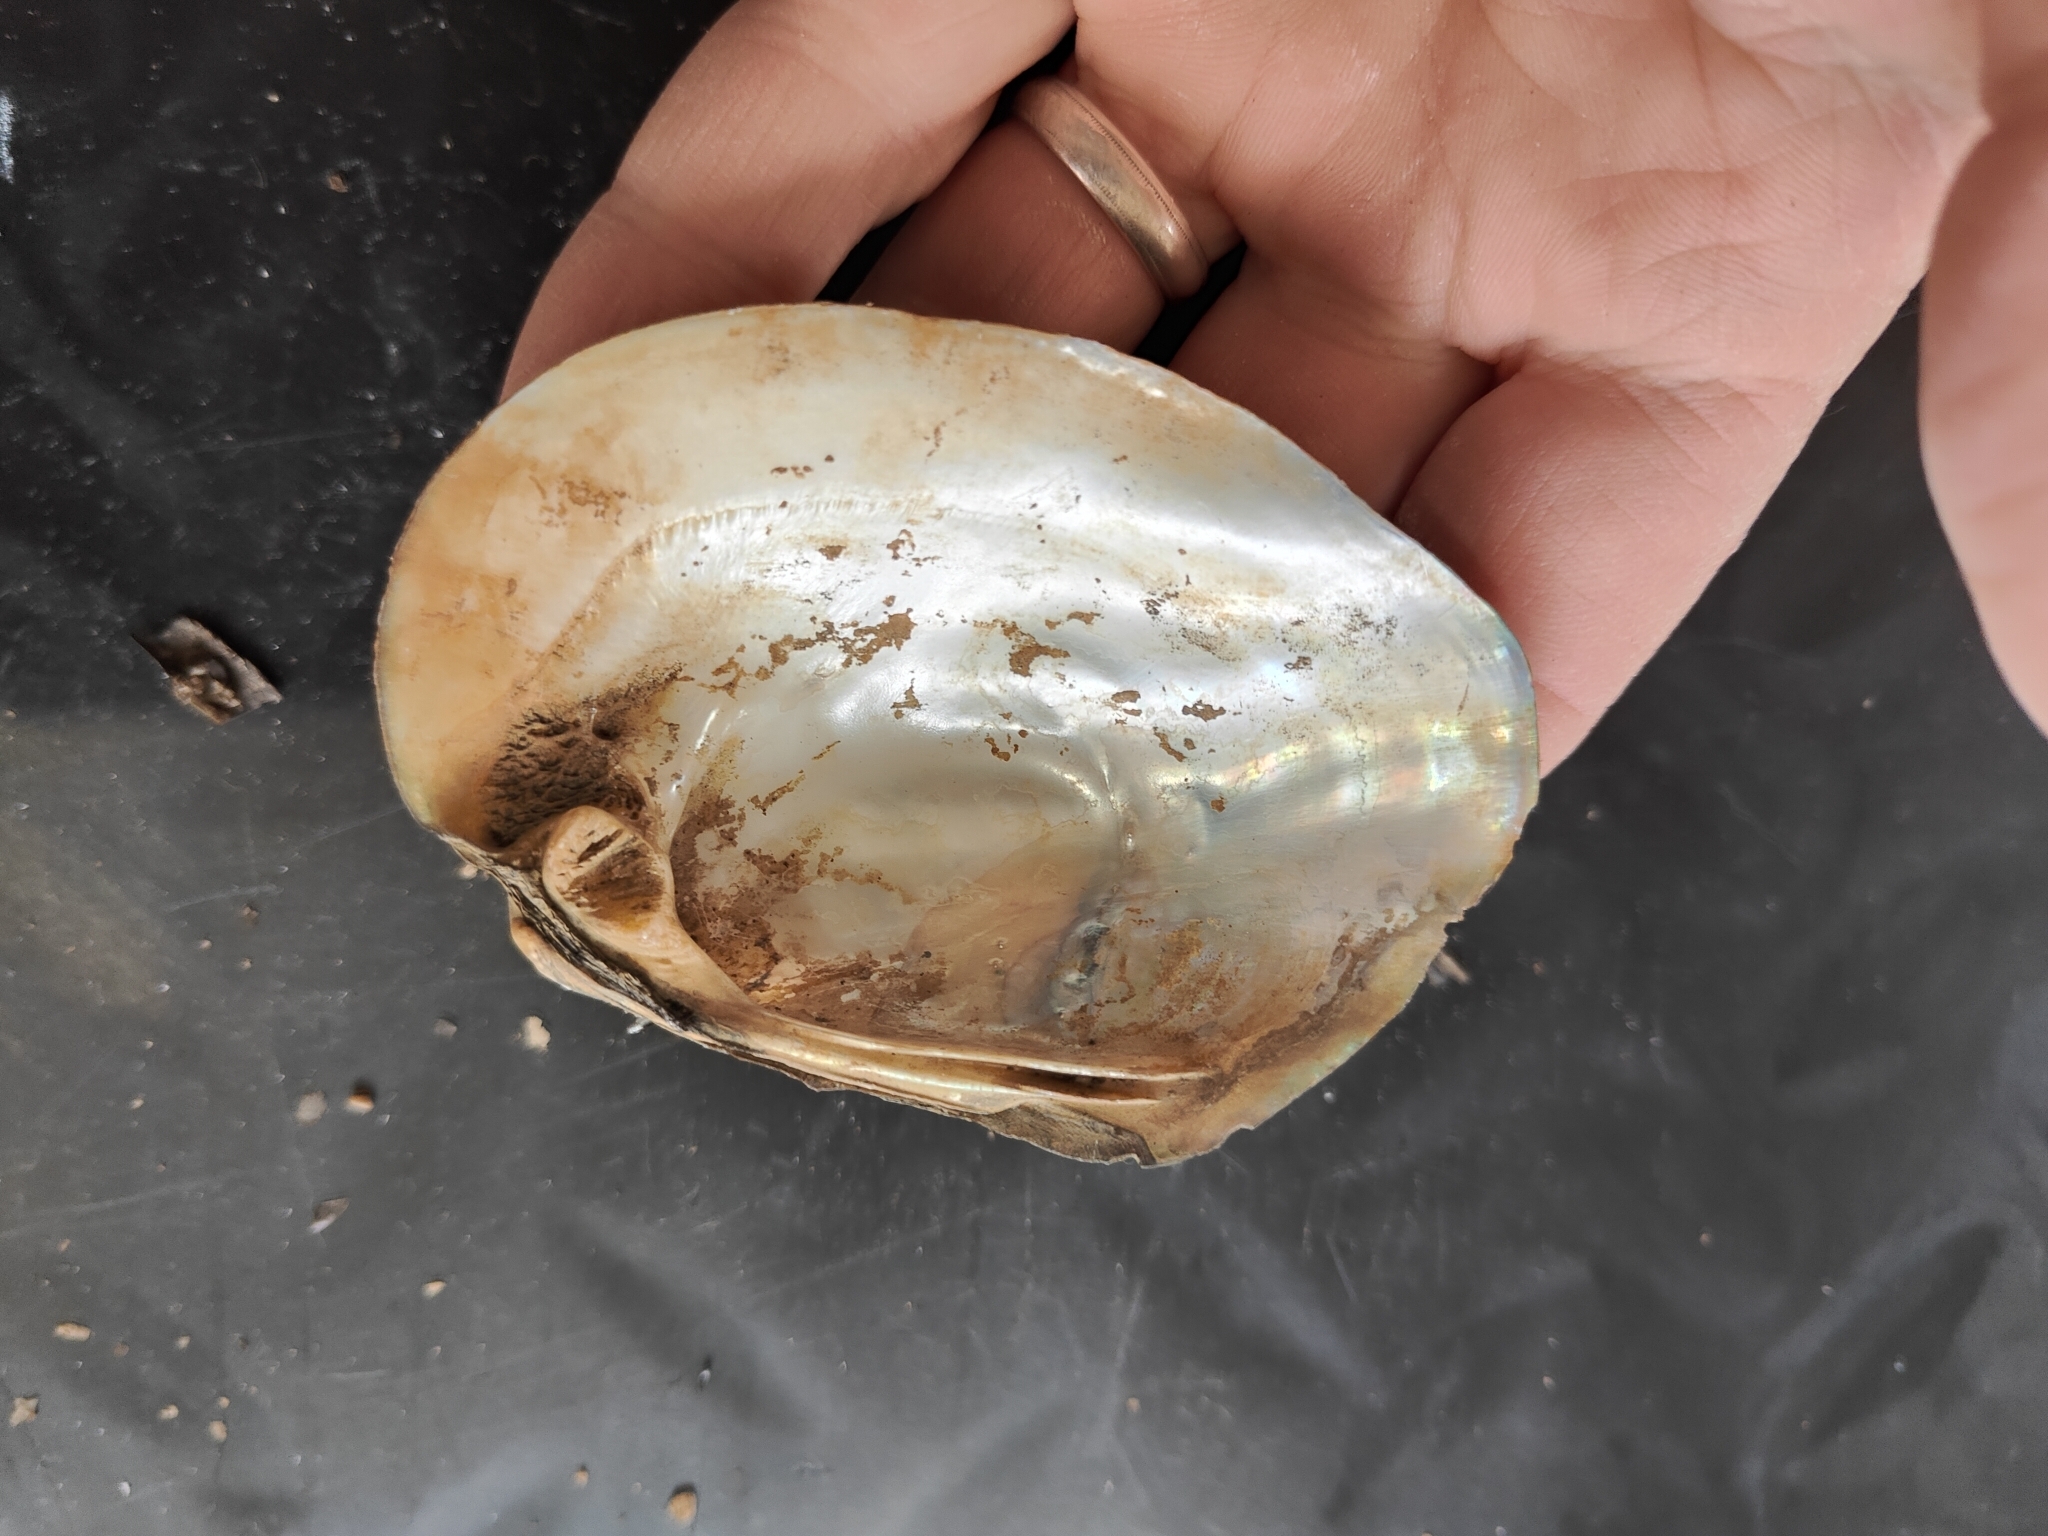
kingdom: Animalia
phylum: Mollusca
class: Bivalvia
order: Unionida
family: Unionidae
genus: Amblema
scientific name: Amblema plicata
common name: Threeridge
